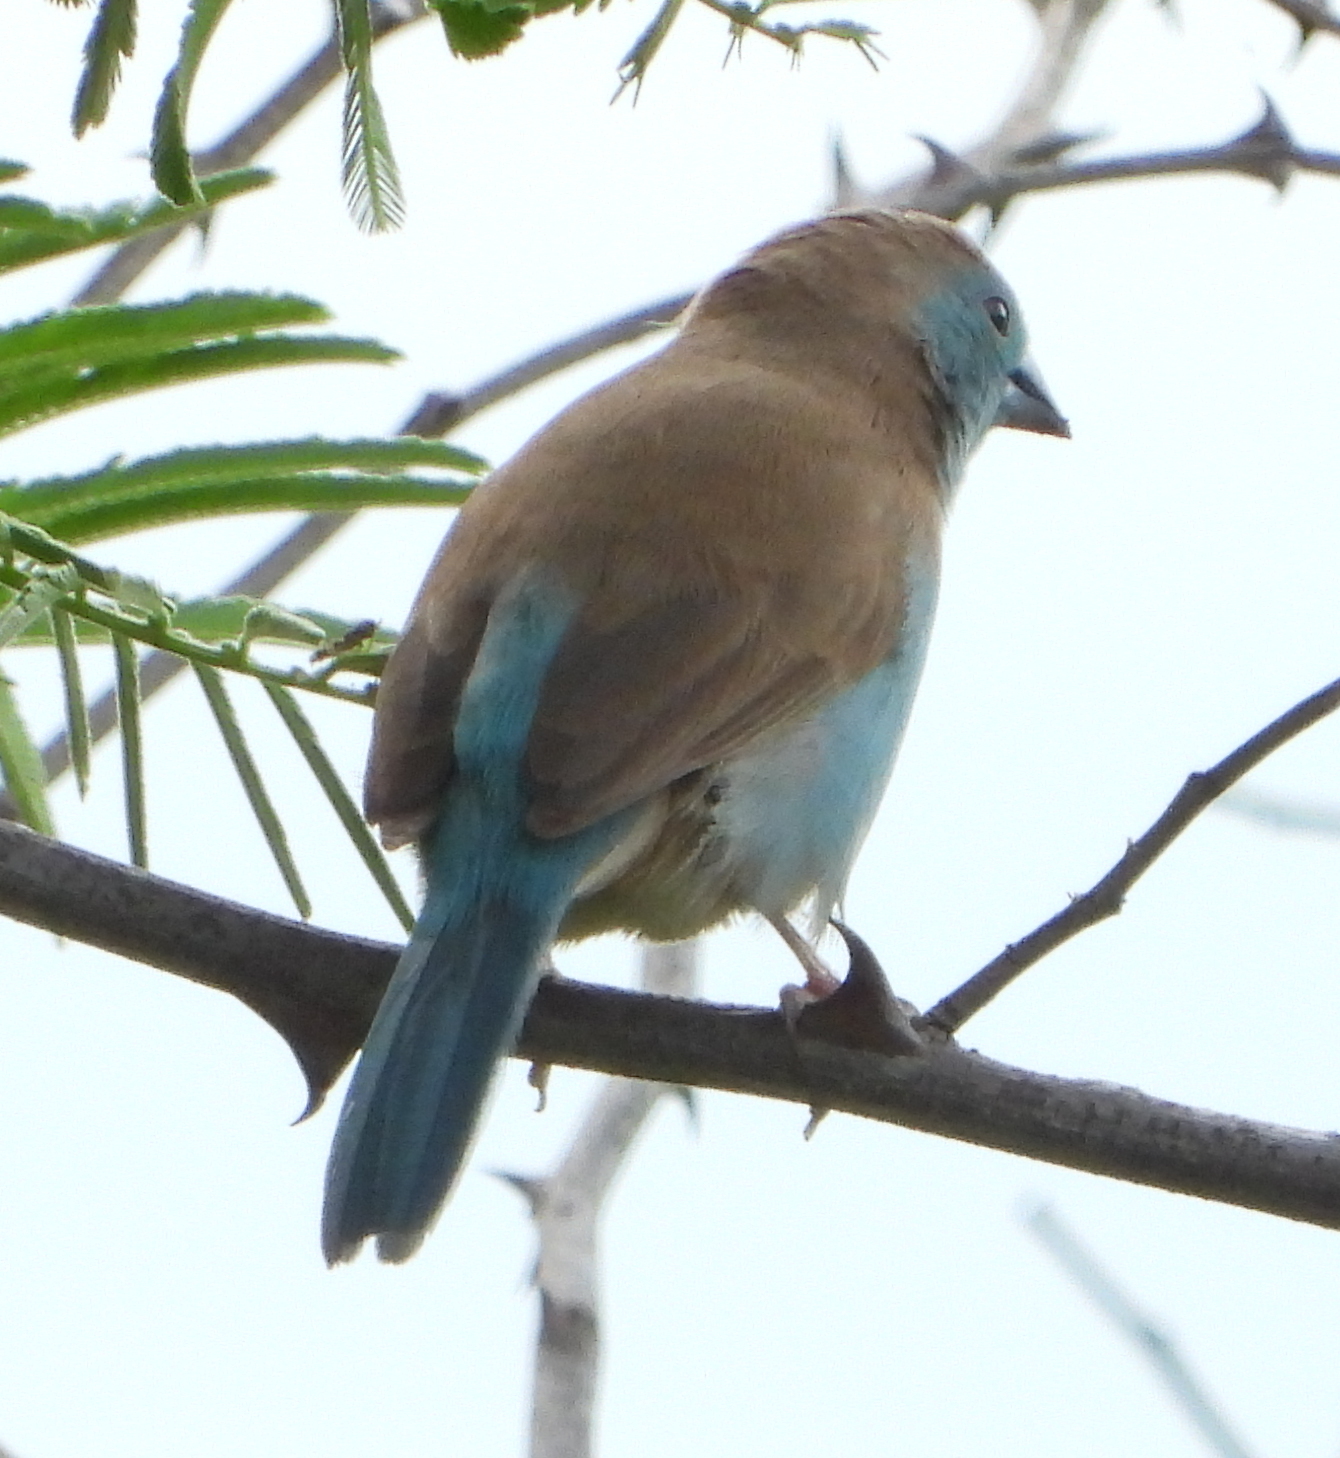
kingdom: Animalia
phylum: Chordata
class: Aves
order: Passeriformes
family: Estrildidae
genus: Uraeginthus
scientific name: Uraeginthus angolensis
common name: Blue waxbill
